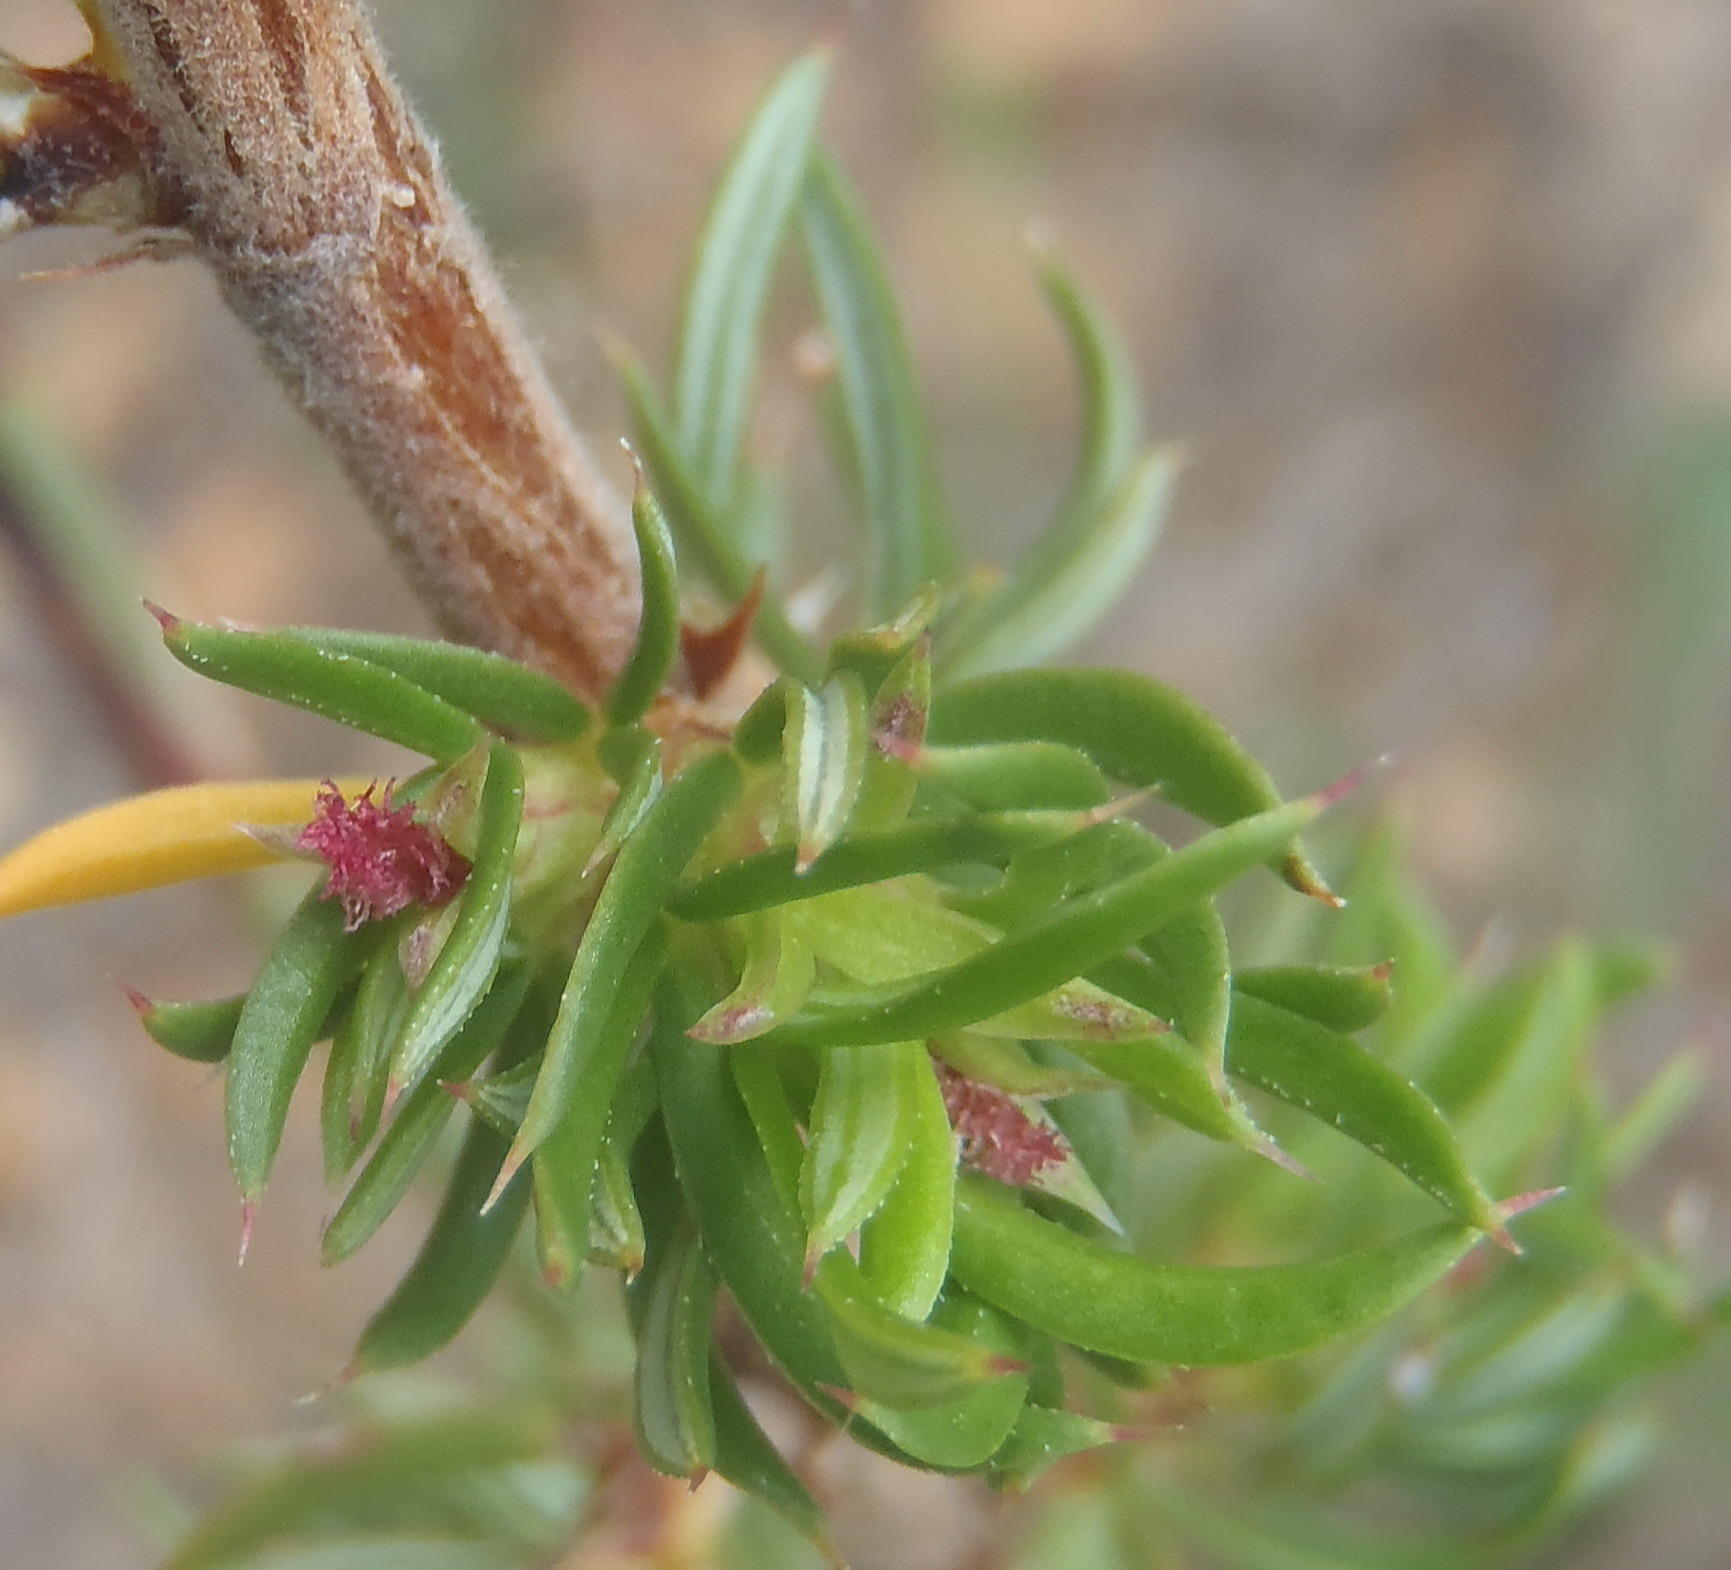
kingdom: Plantae
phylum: Tracheophyta
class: Magnoliopsida
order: Rosales
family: Rosaceae
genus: Cliffortia
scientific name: Cliffortia arcuata
